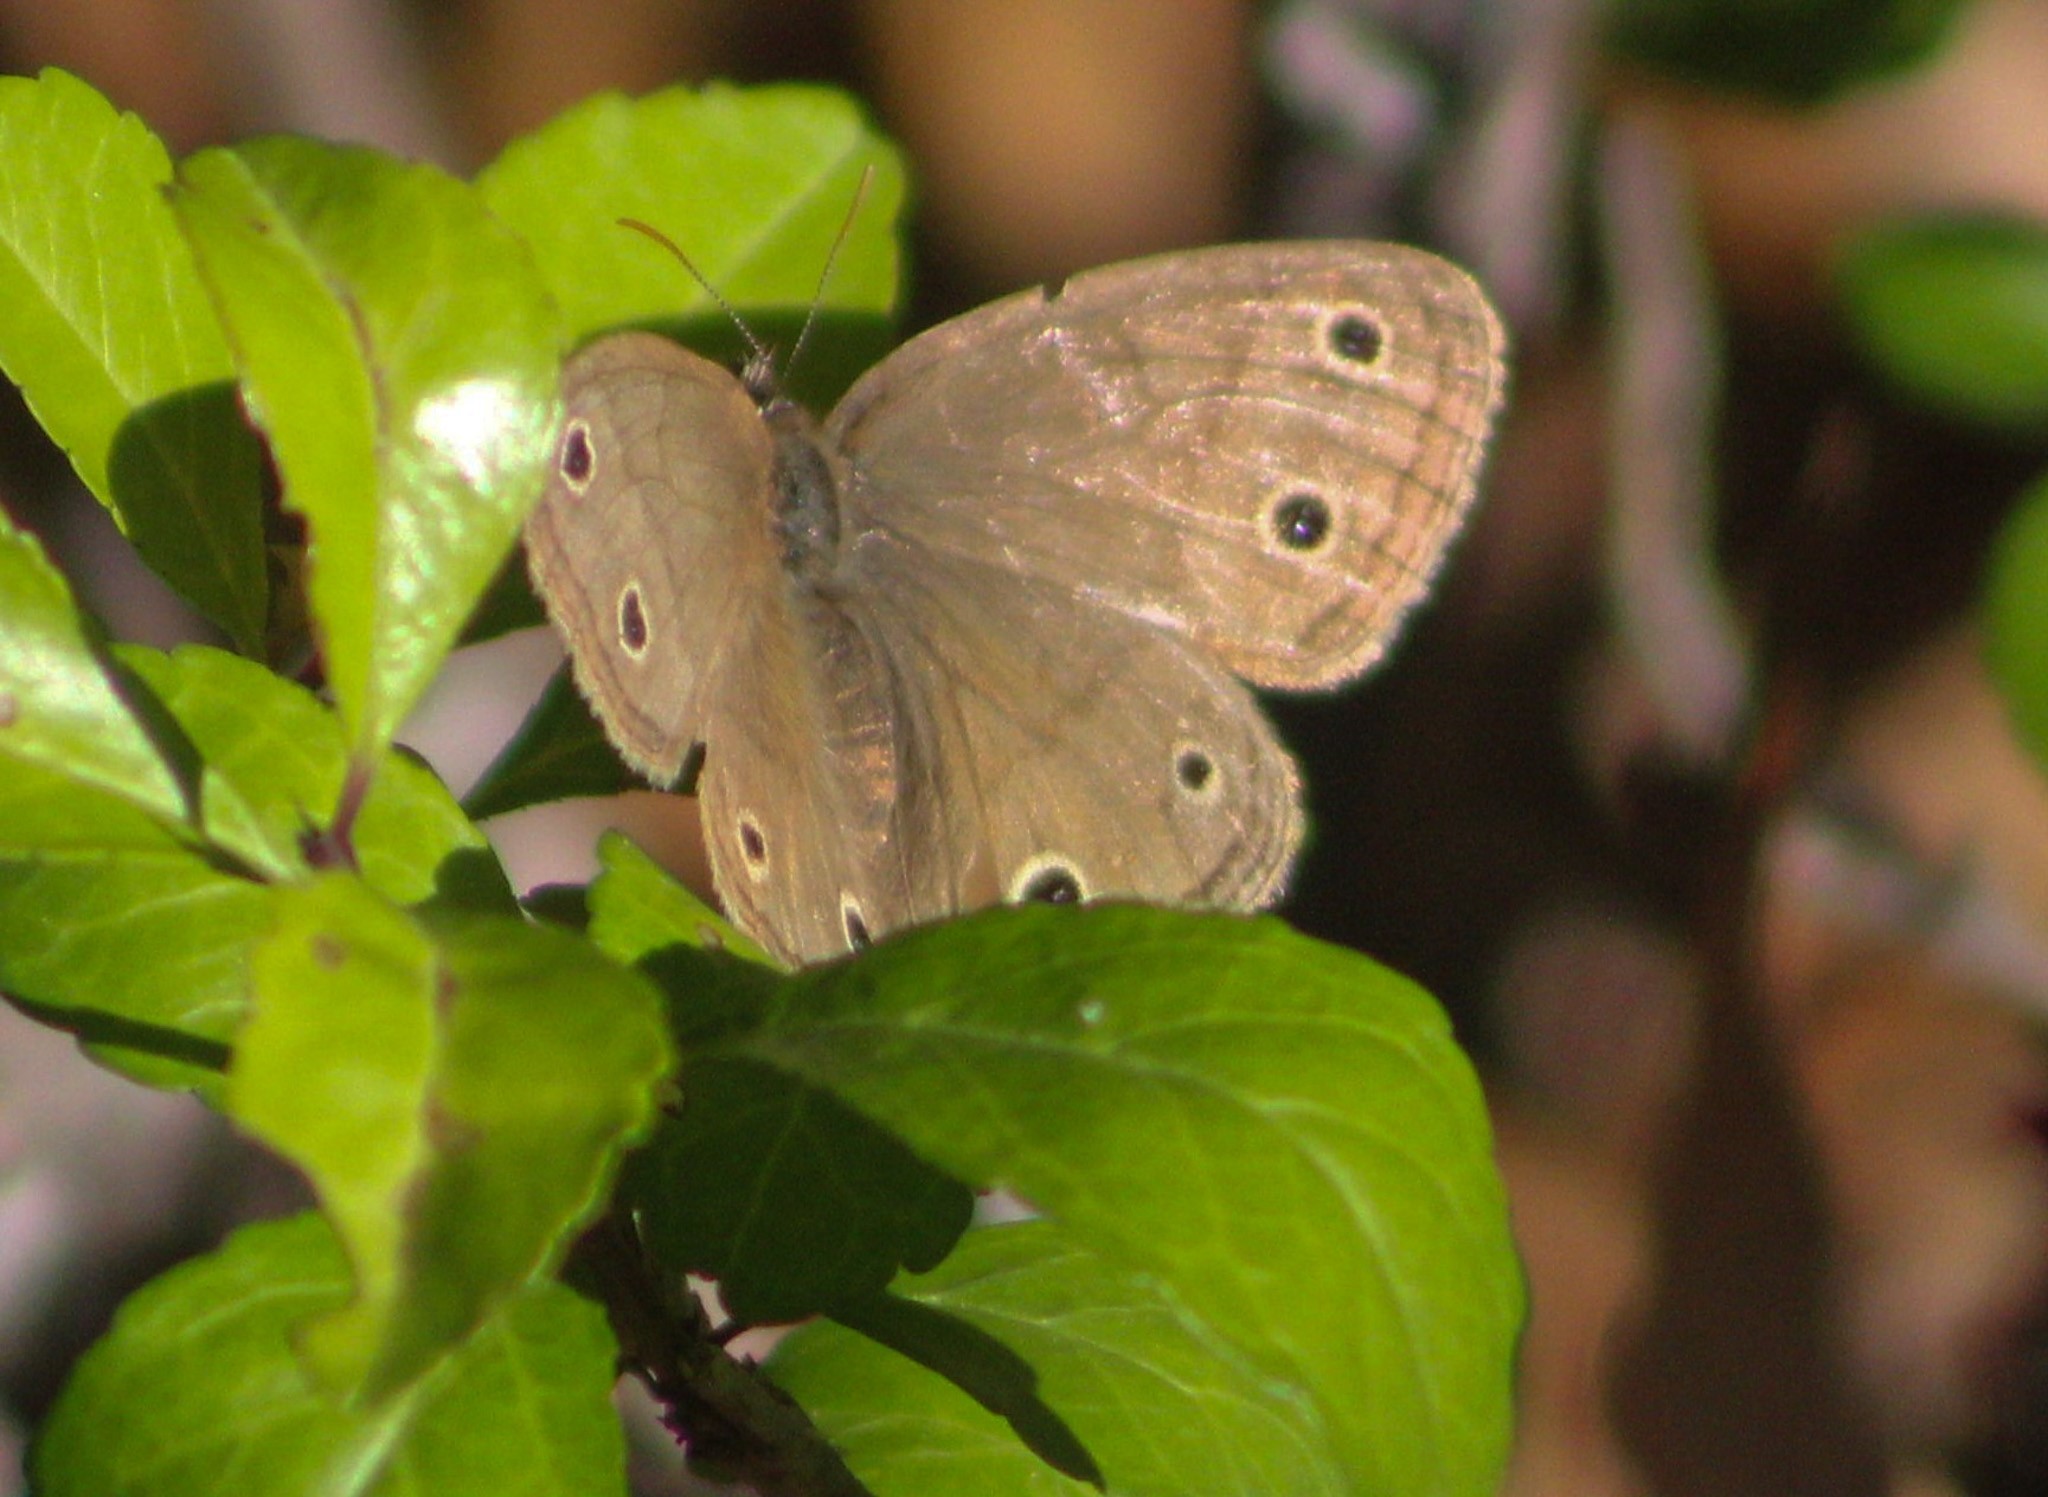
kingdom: Animalia
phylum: Arthropoda
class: Insecta
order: Lepidoptera
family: Nymphalidae
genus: Euptychia
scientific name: Euptychia cymela
